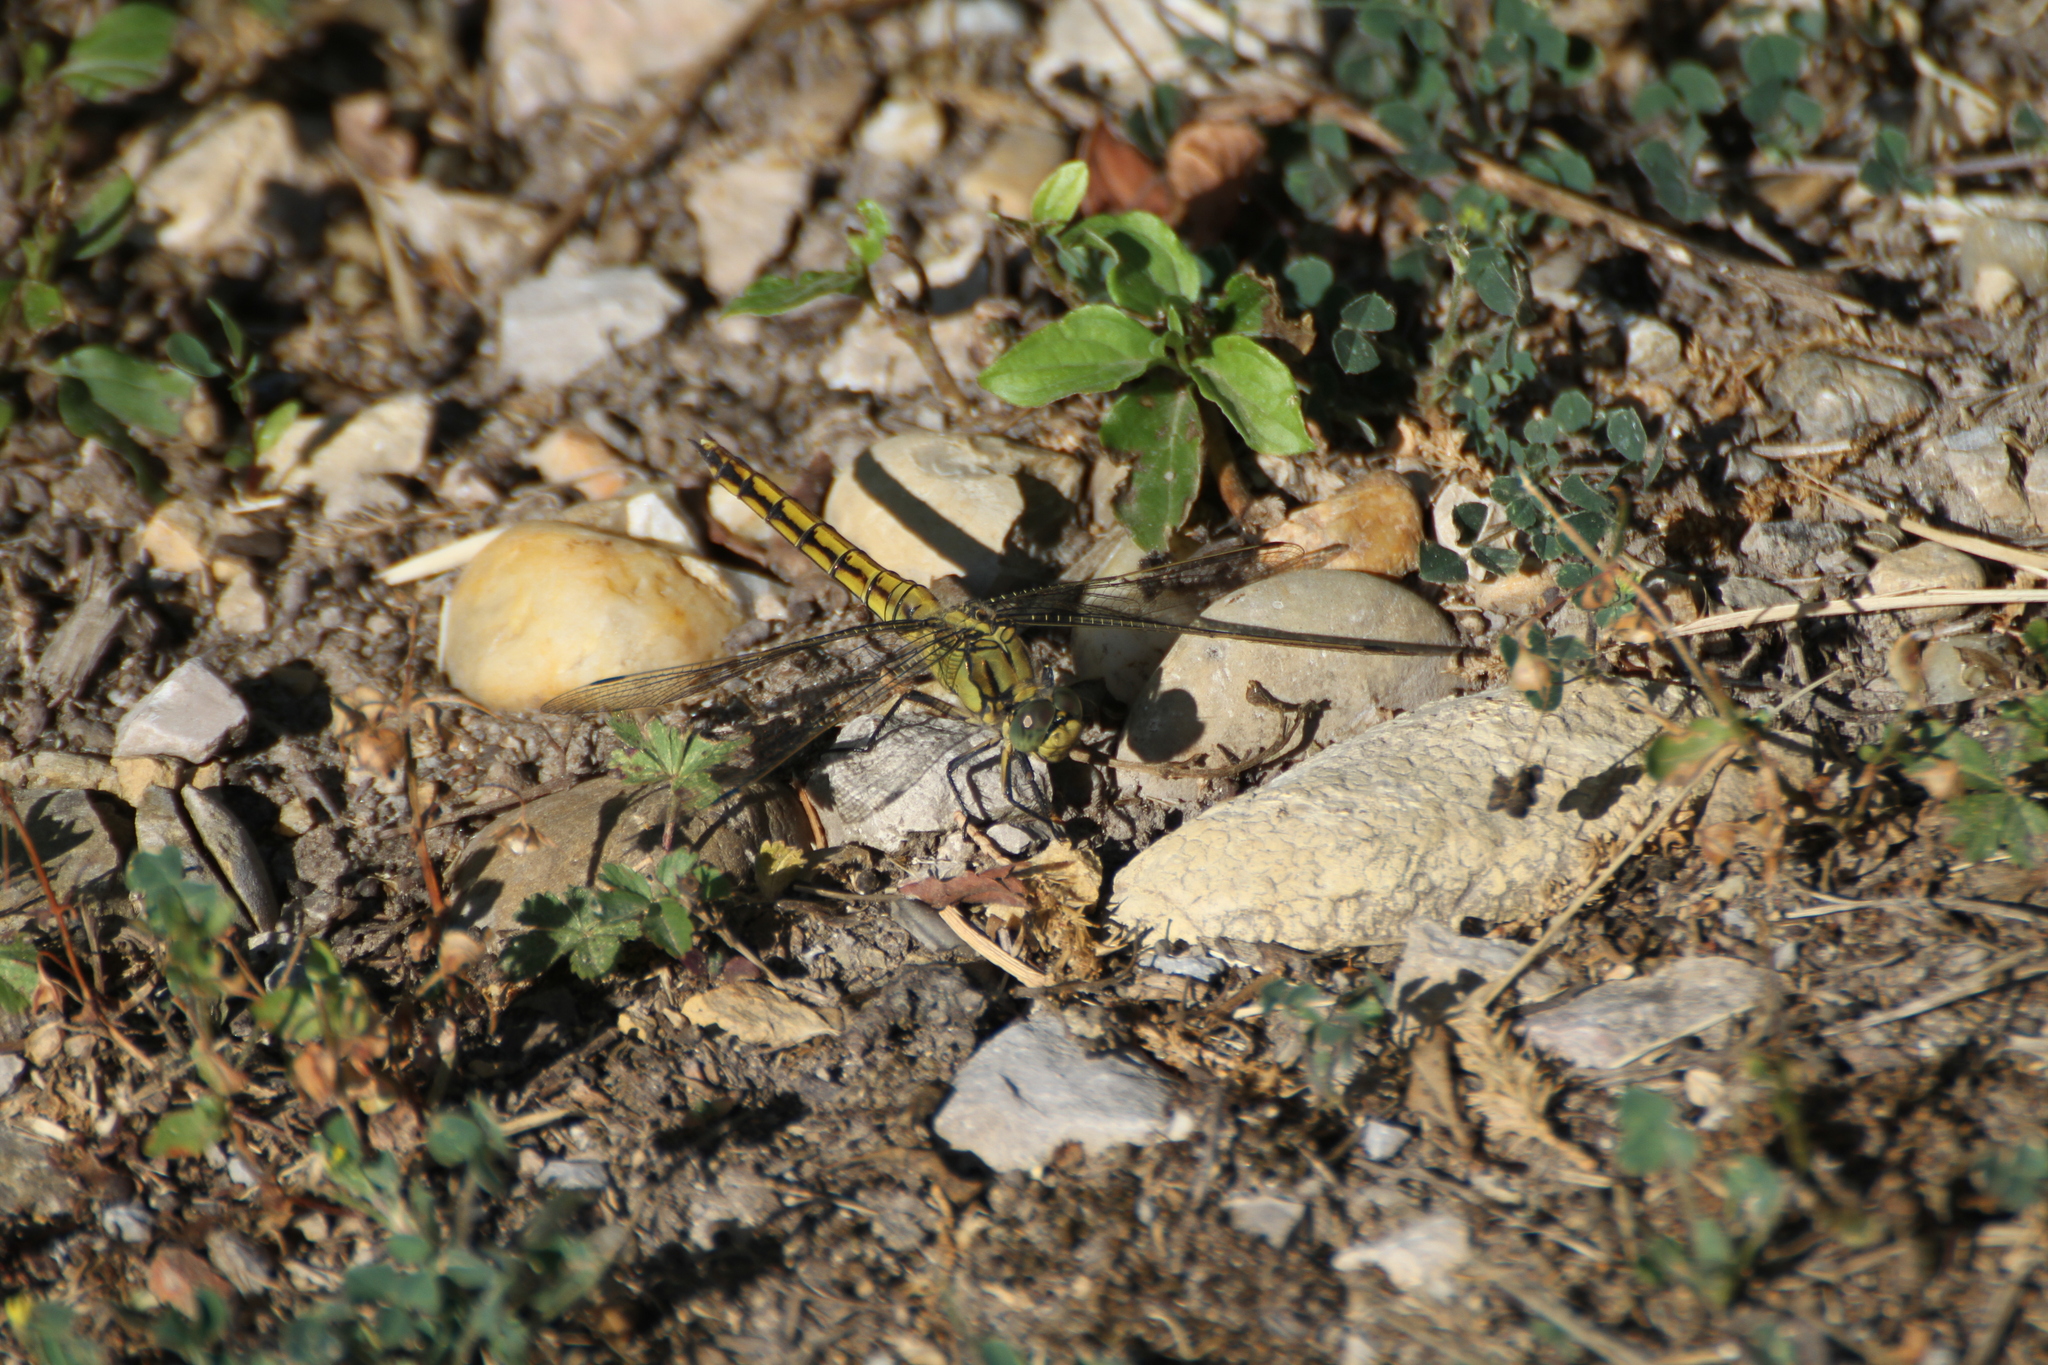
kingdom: Animalia
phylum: Arthropoda
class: Insecta
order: Odonata
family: Libellulidae
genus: Orthetrum
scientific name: Orthetrum cancellatum
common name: Black-tailed skimmer
